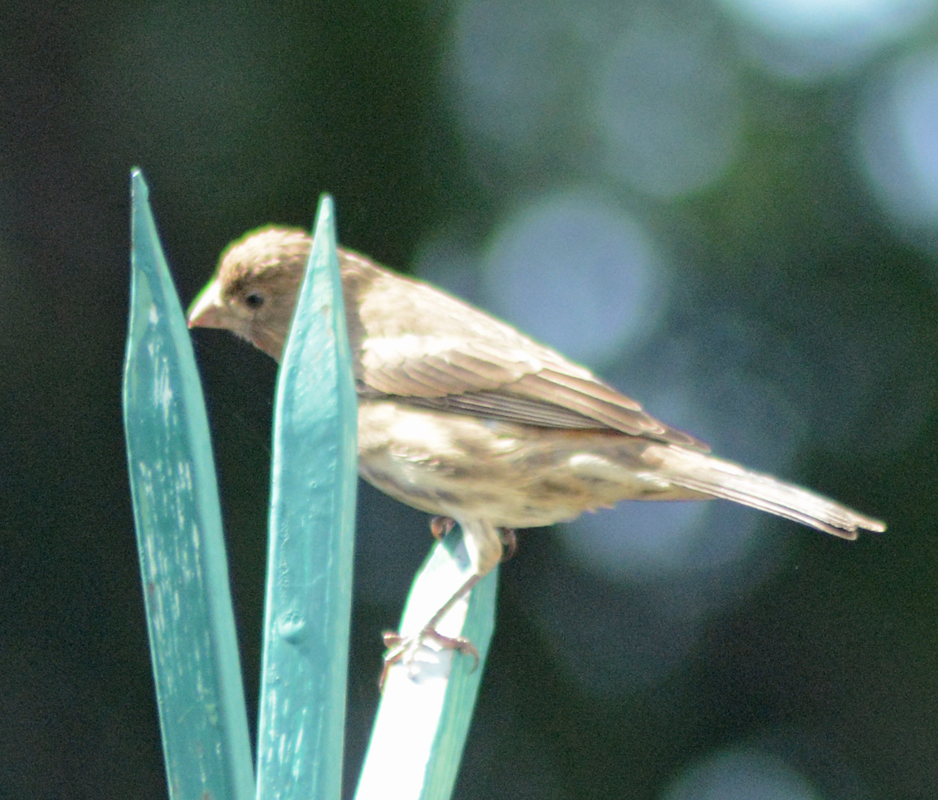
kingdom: Animalia
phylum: Chordata
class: Aves
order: Passeriformes
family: Fringillidae
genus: Haemorhous
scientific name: Haemorhous mexicanus
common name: House finch
